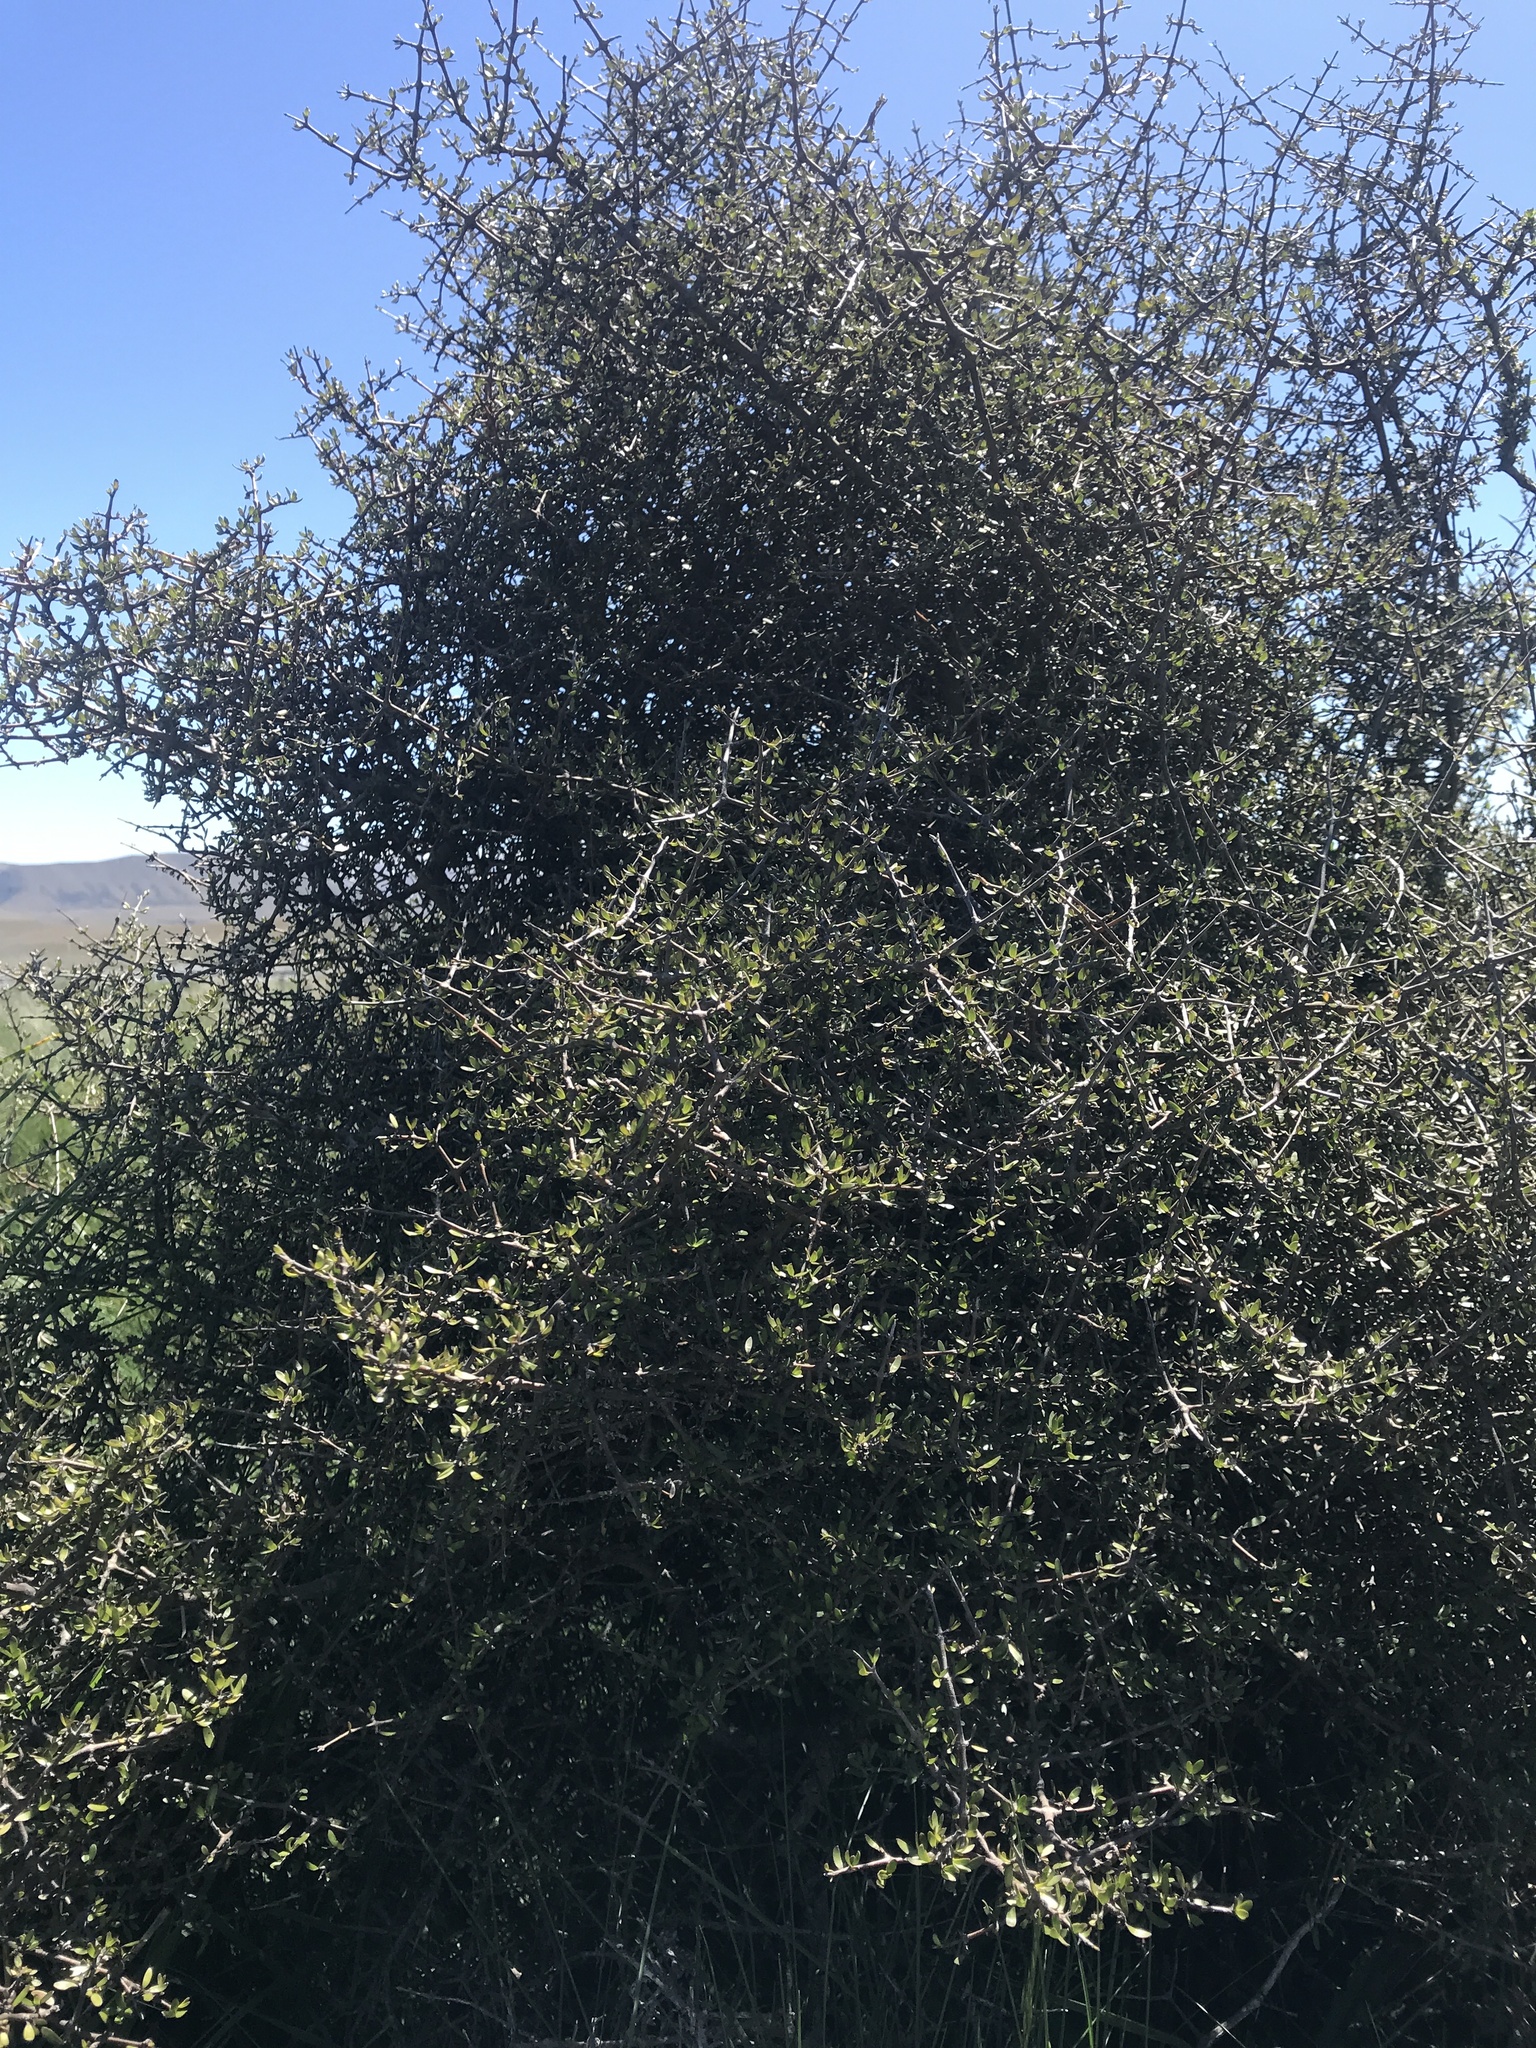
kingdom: Plantae
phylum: Tracheophyta
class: Magnoliopsida
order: Gentianales
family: Rubiaceae
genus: Coprosma
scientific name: Coprosma propinqua
